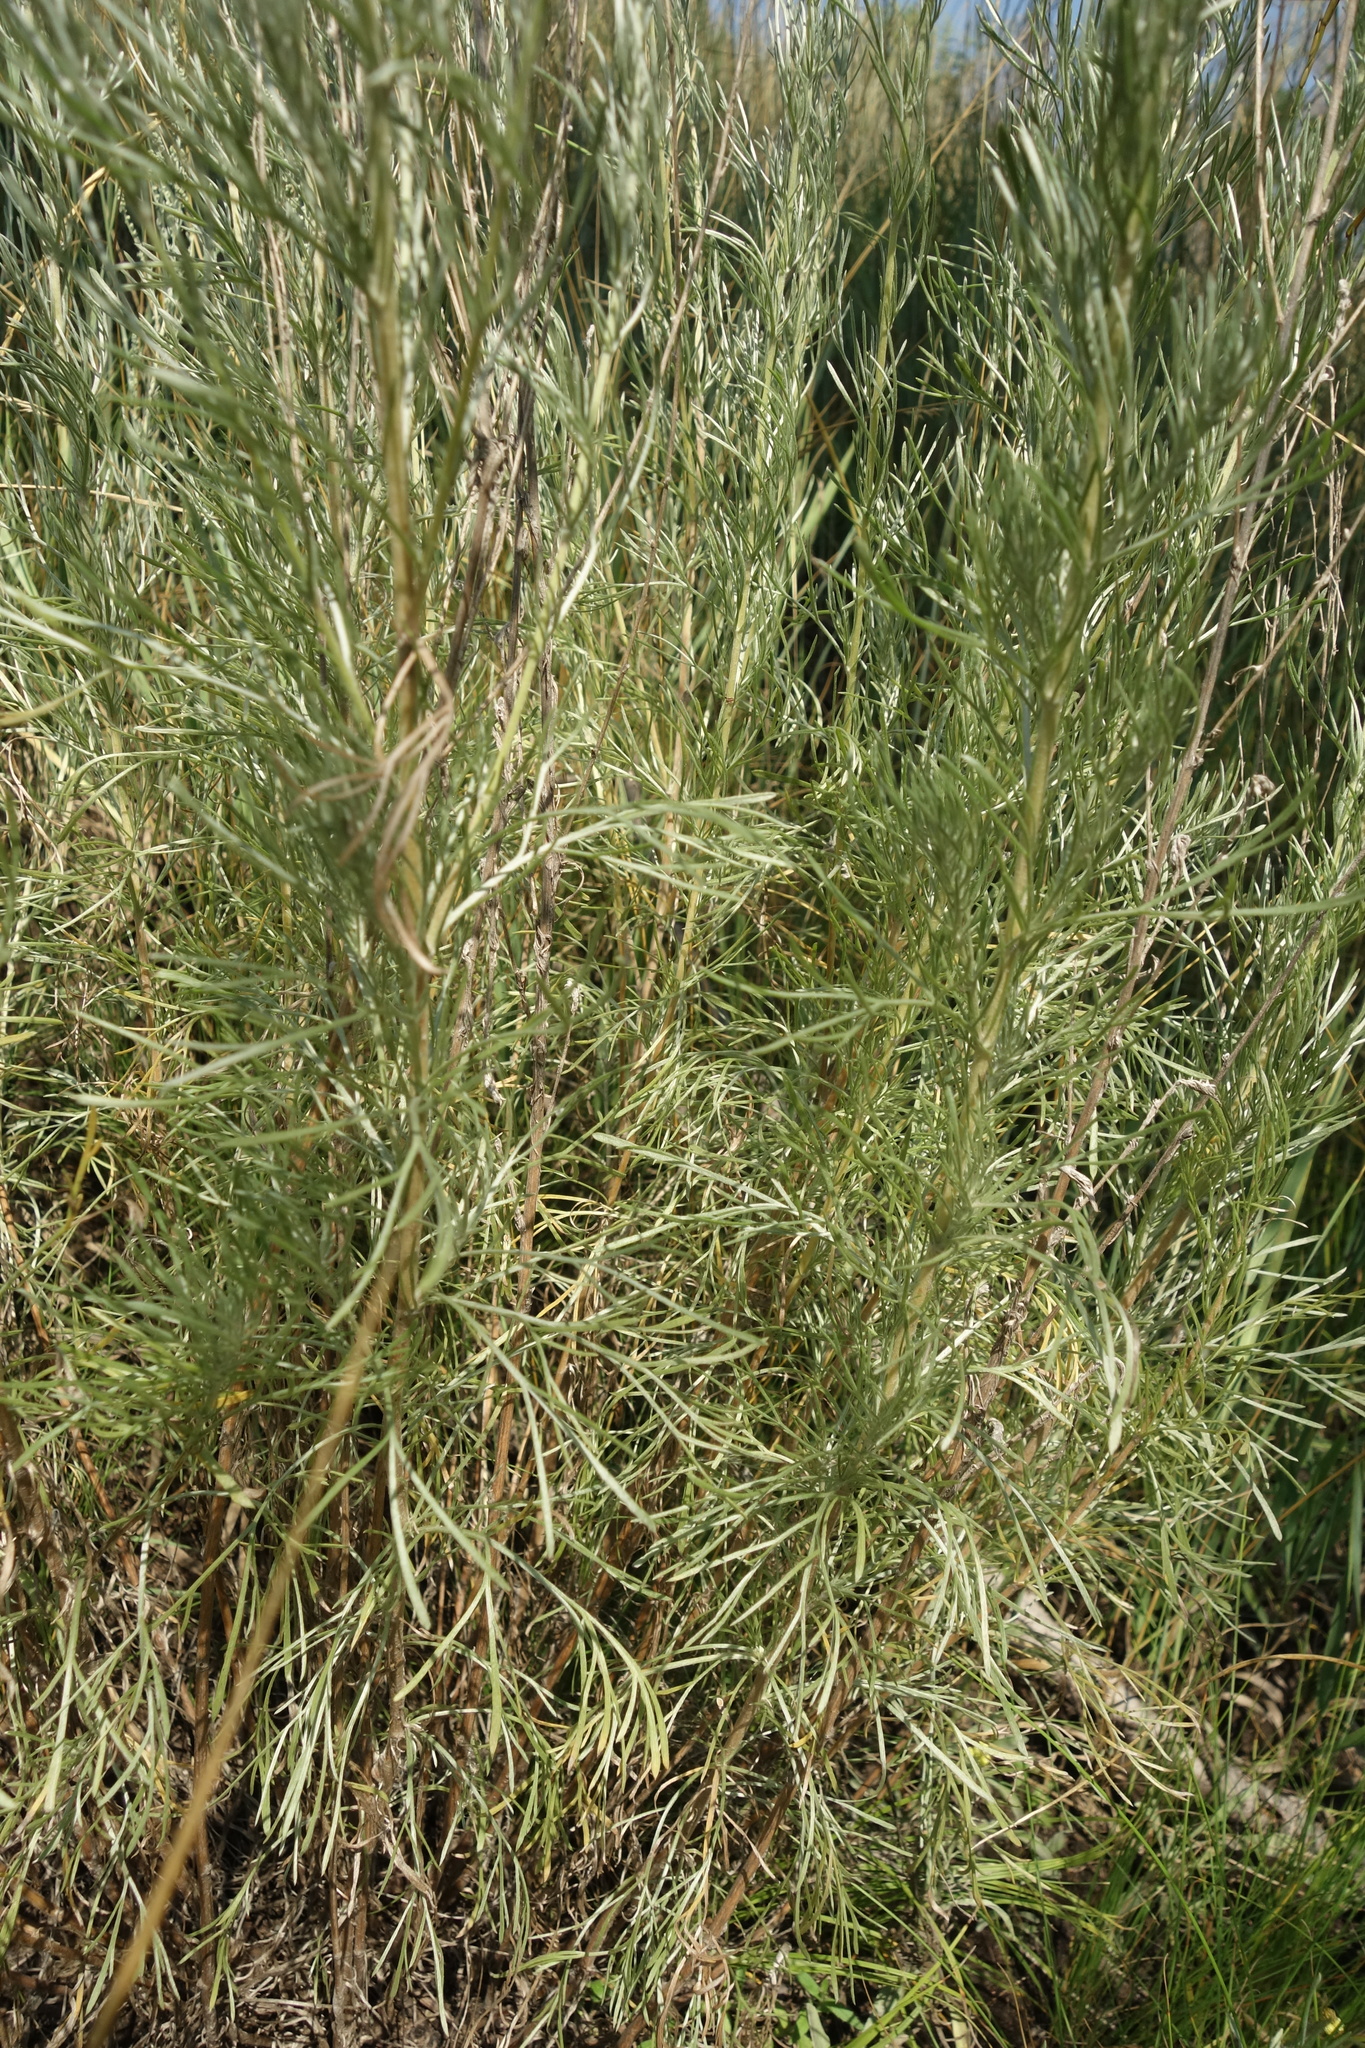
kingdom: Plantae
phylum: Tracheophyta
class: Magnoliopsida
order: Asterales
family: Asteraceae
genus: Artemisia
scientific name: Artemisia campestris
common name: Field wormwood
